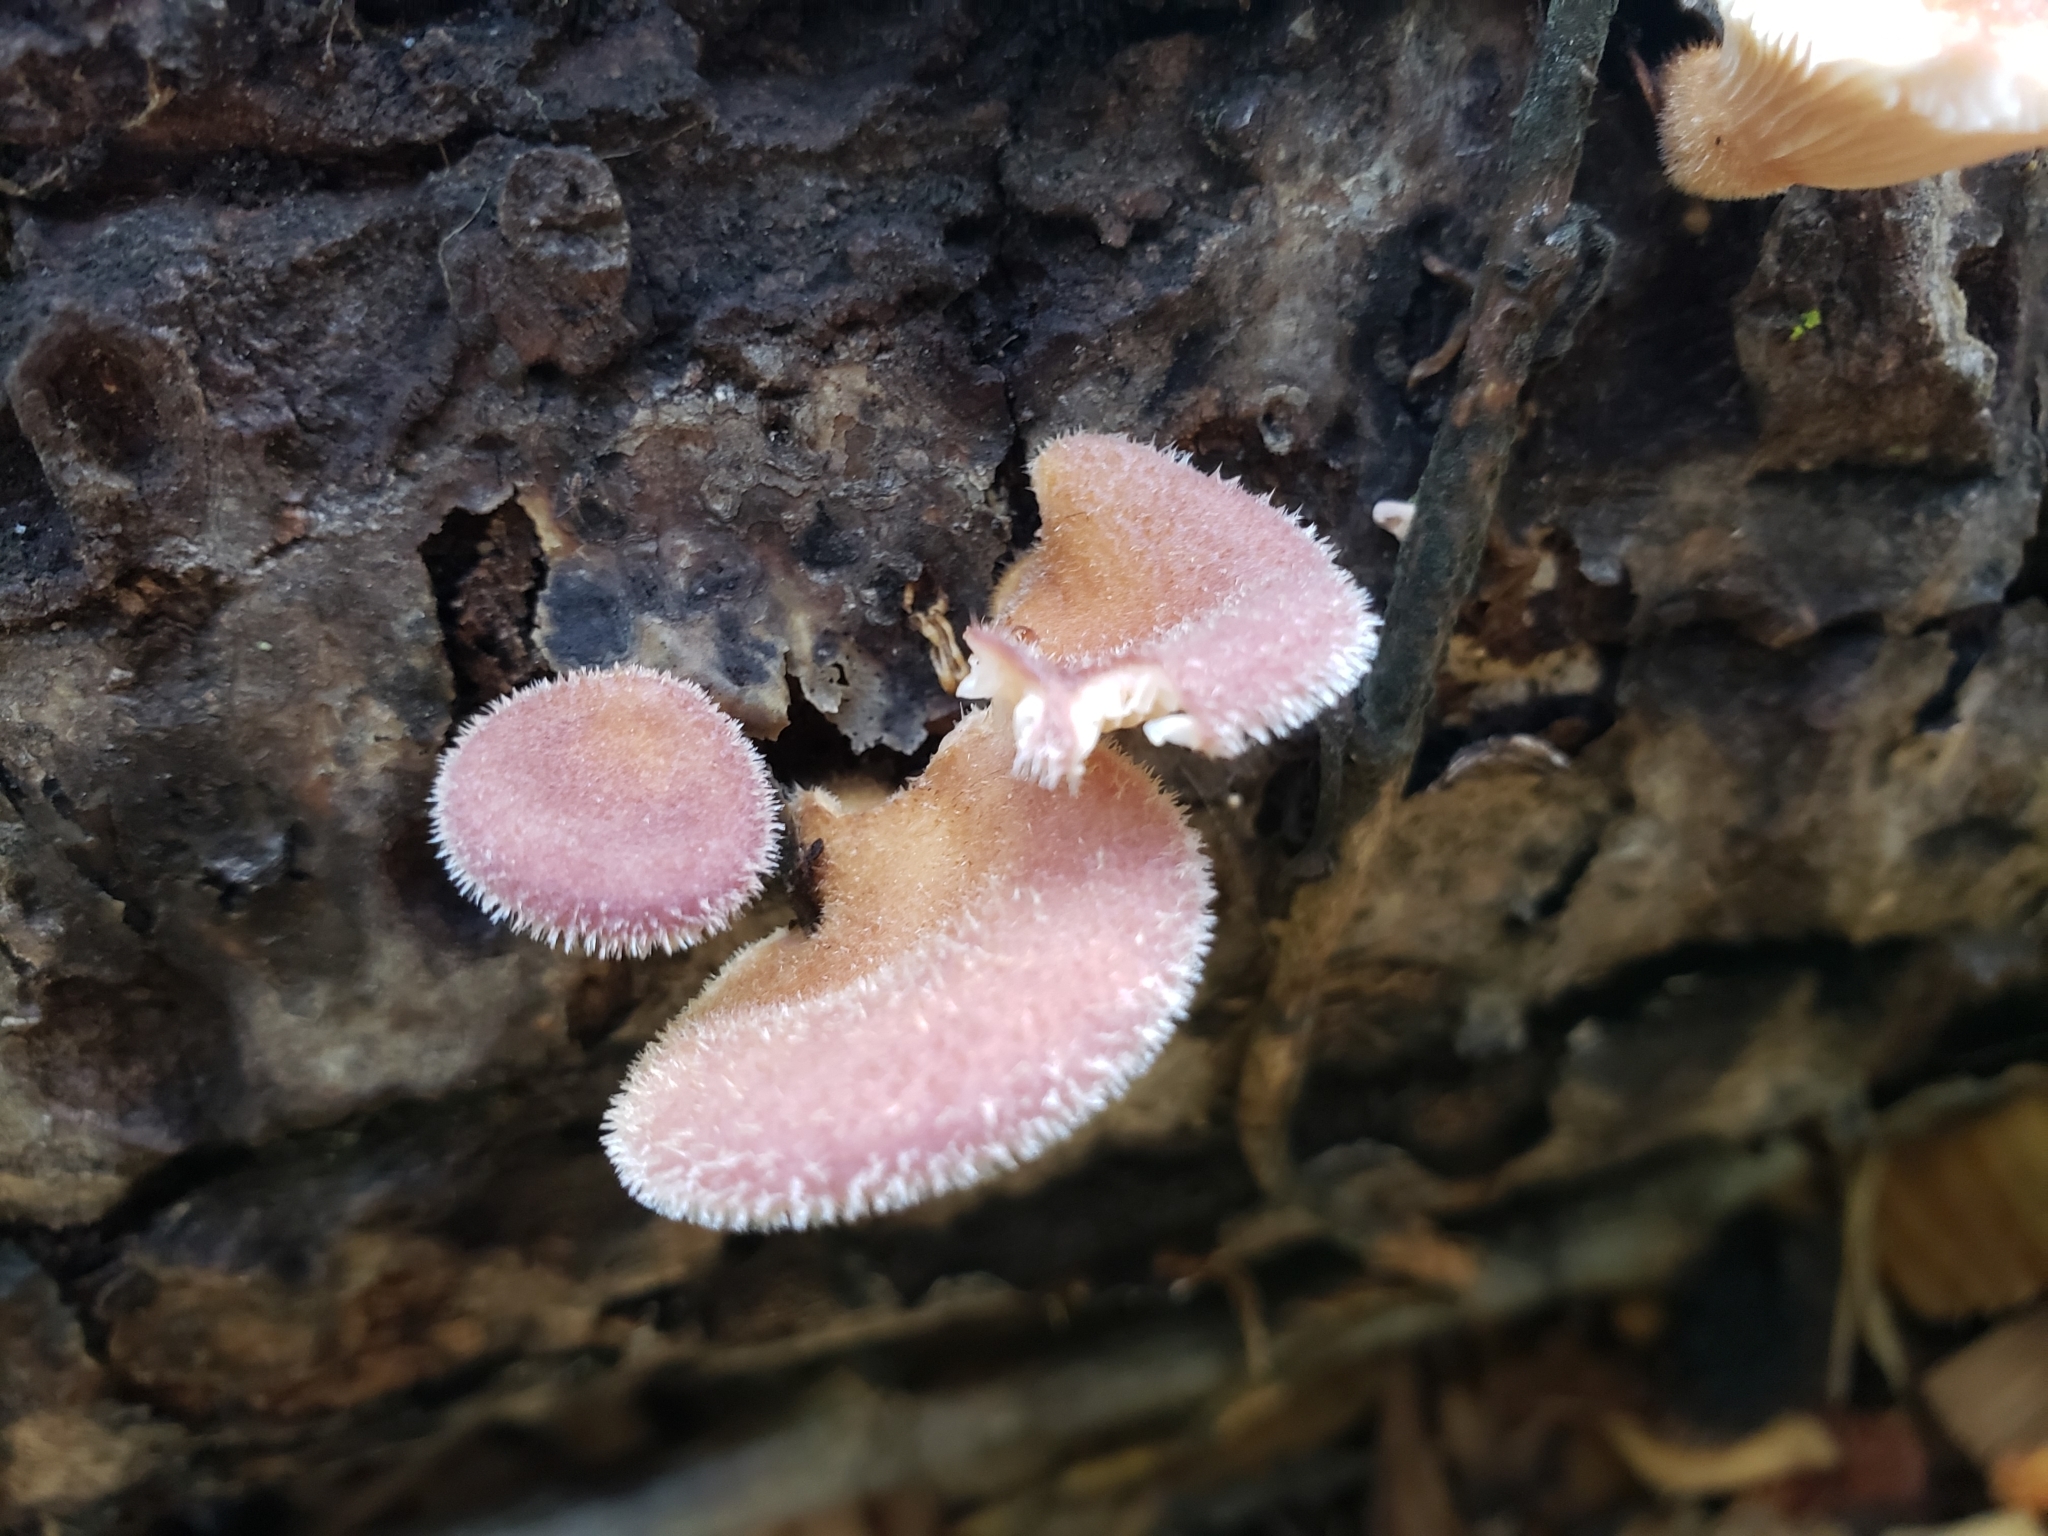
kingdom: Fungi
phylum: Basidiomycota
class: Agaricomycetes
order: Polyporales
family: Panaceae
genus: Panus
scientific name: Panus neostrigosus
